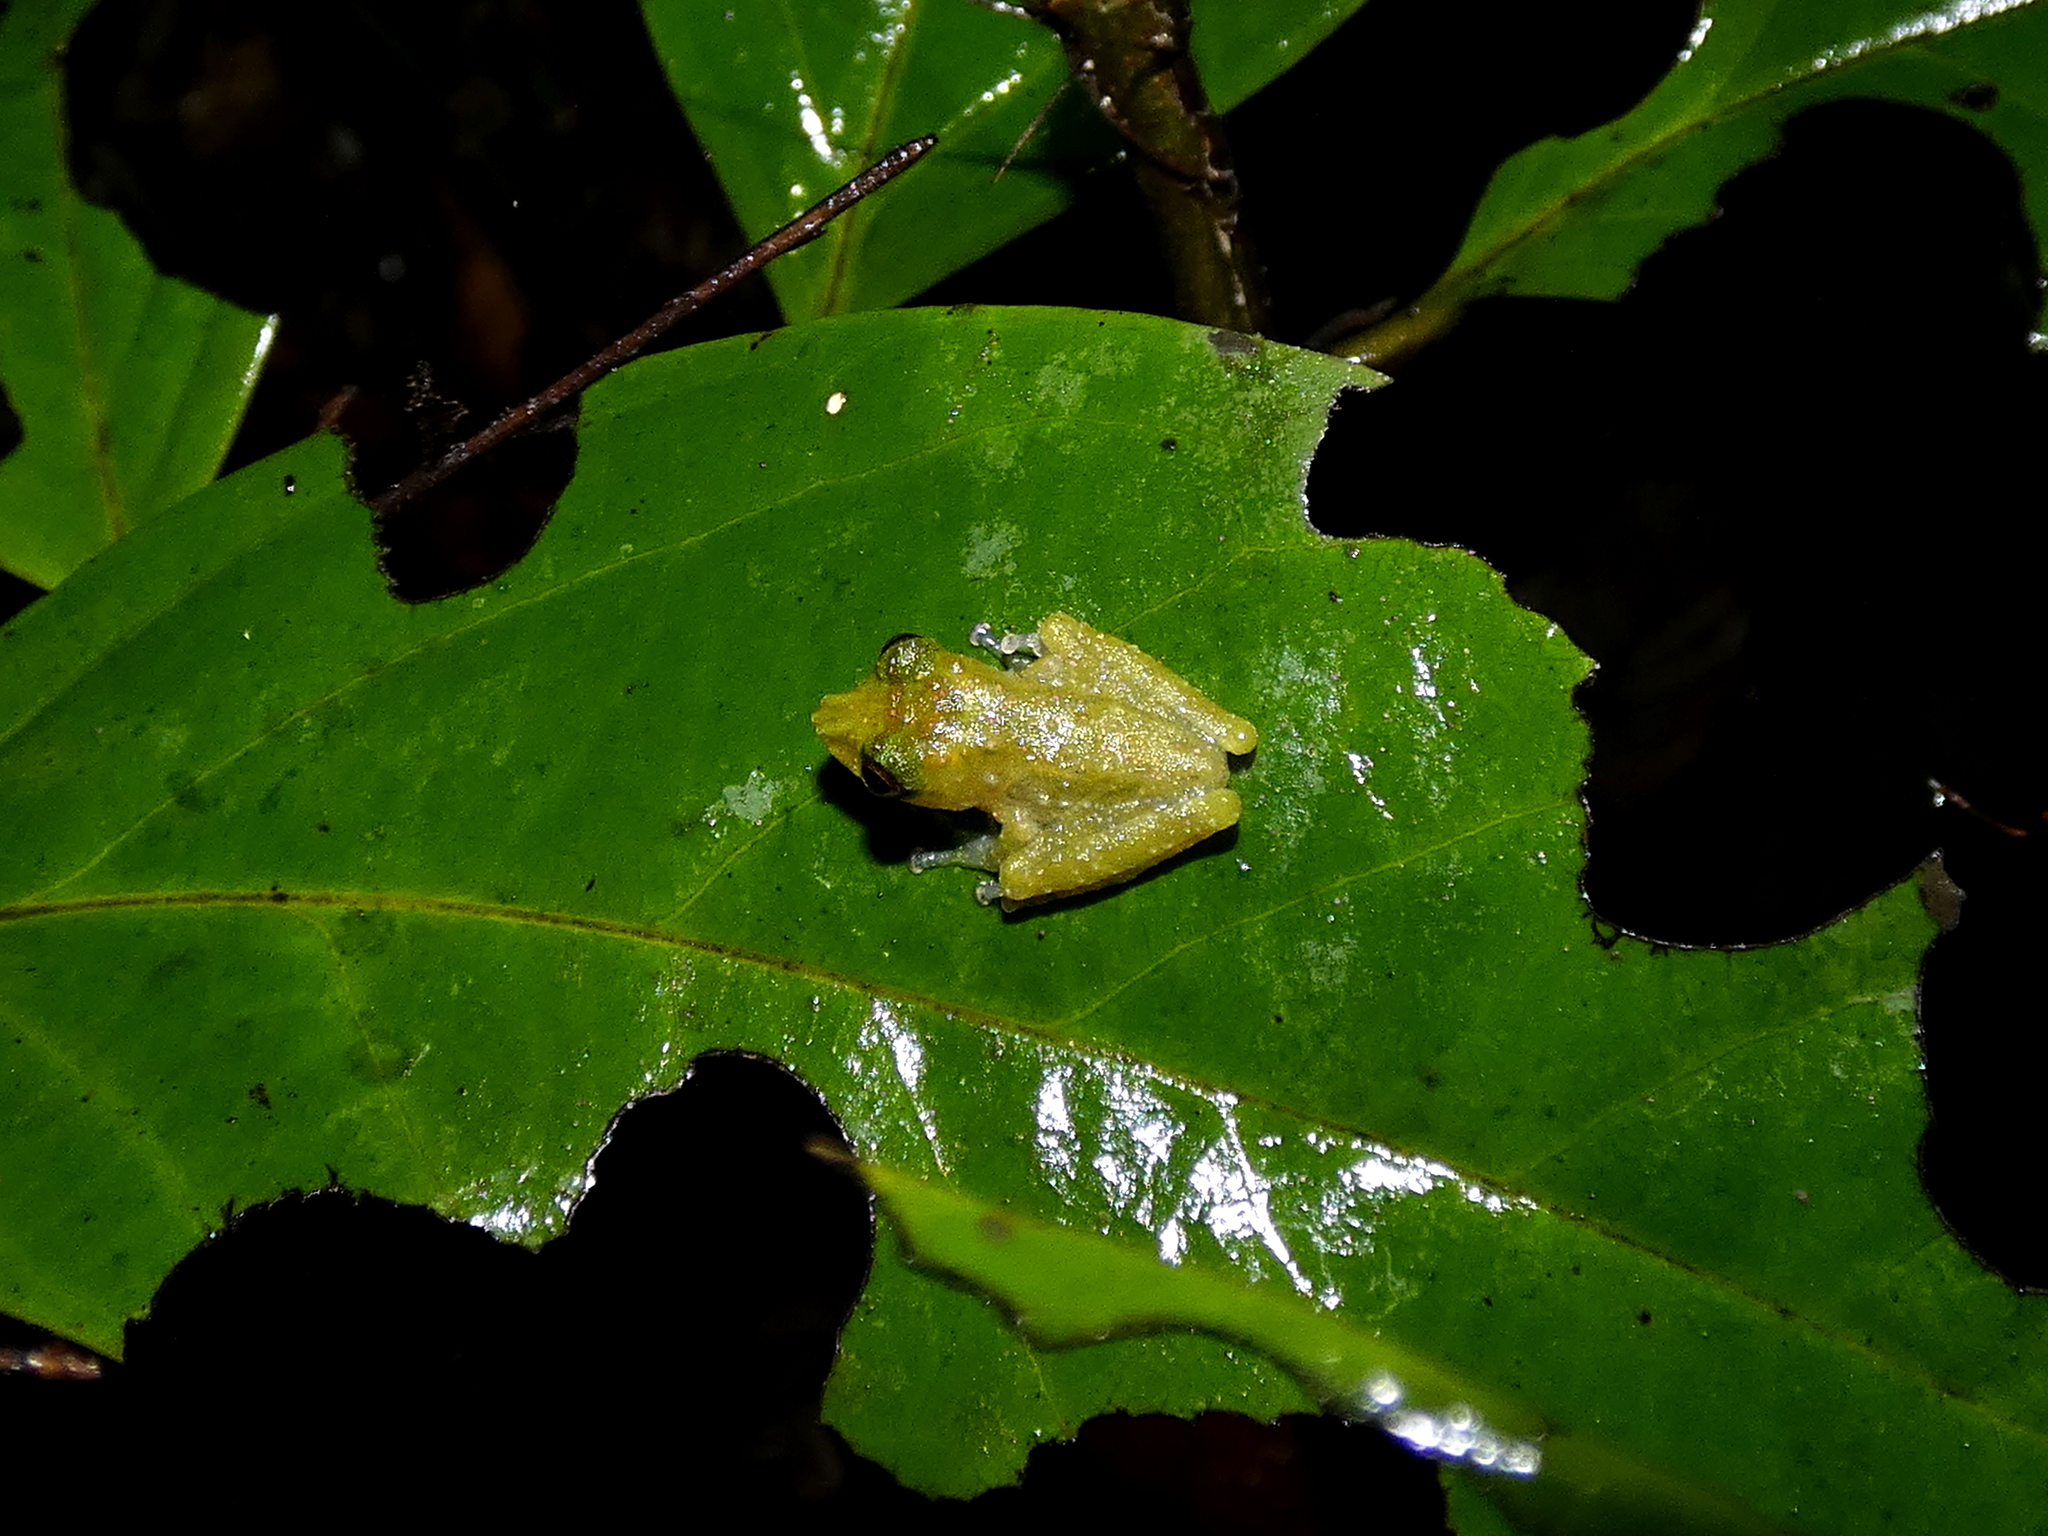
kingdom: Animalia
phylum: Chordata
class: Amphibia
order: Anura
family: Rhacophoridae
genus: Philautus
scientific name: Philautus tectus
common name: Gunung mulu bubble-nest frog
